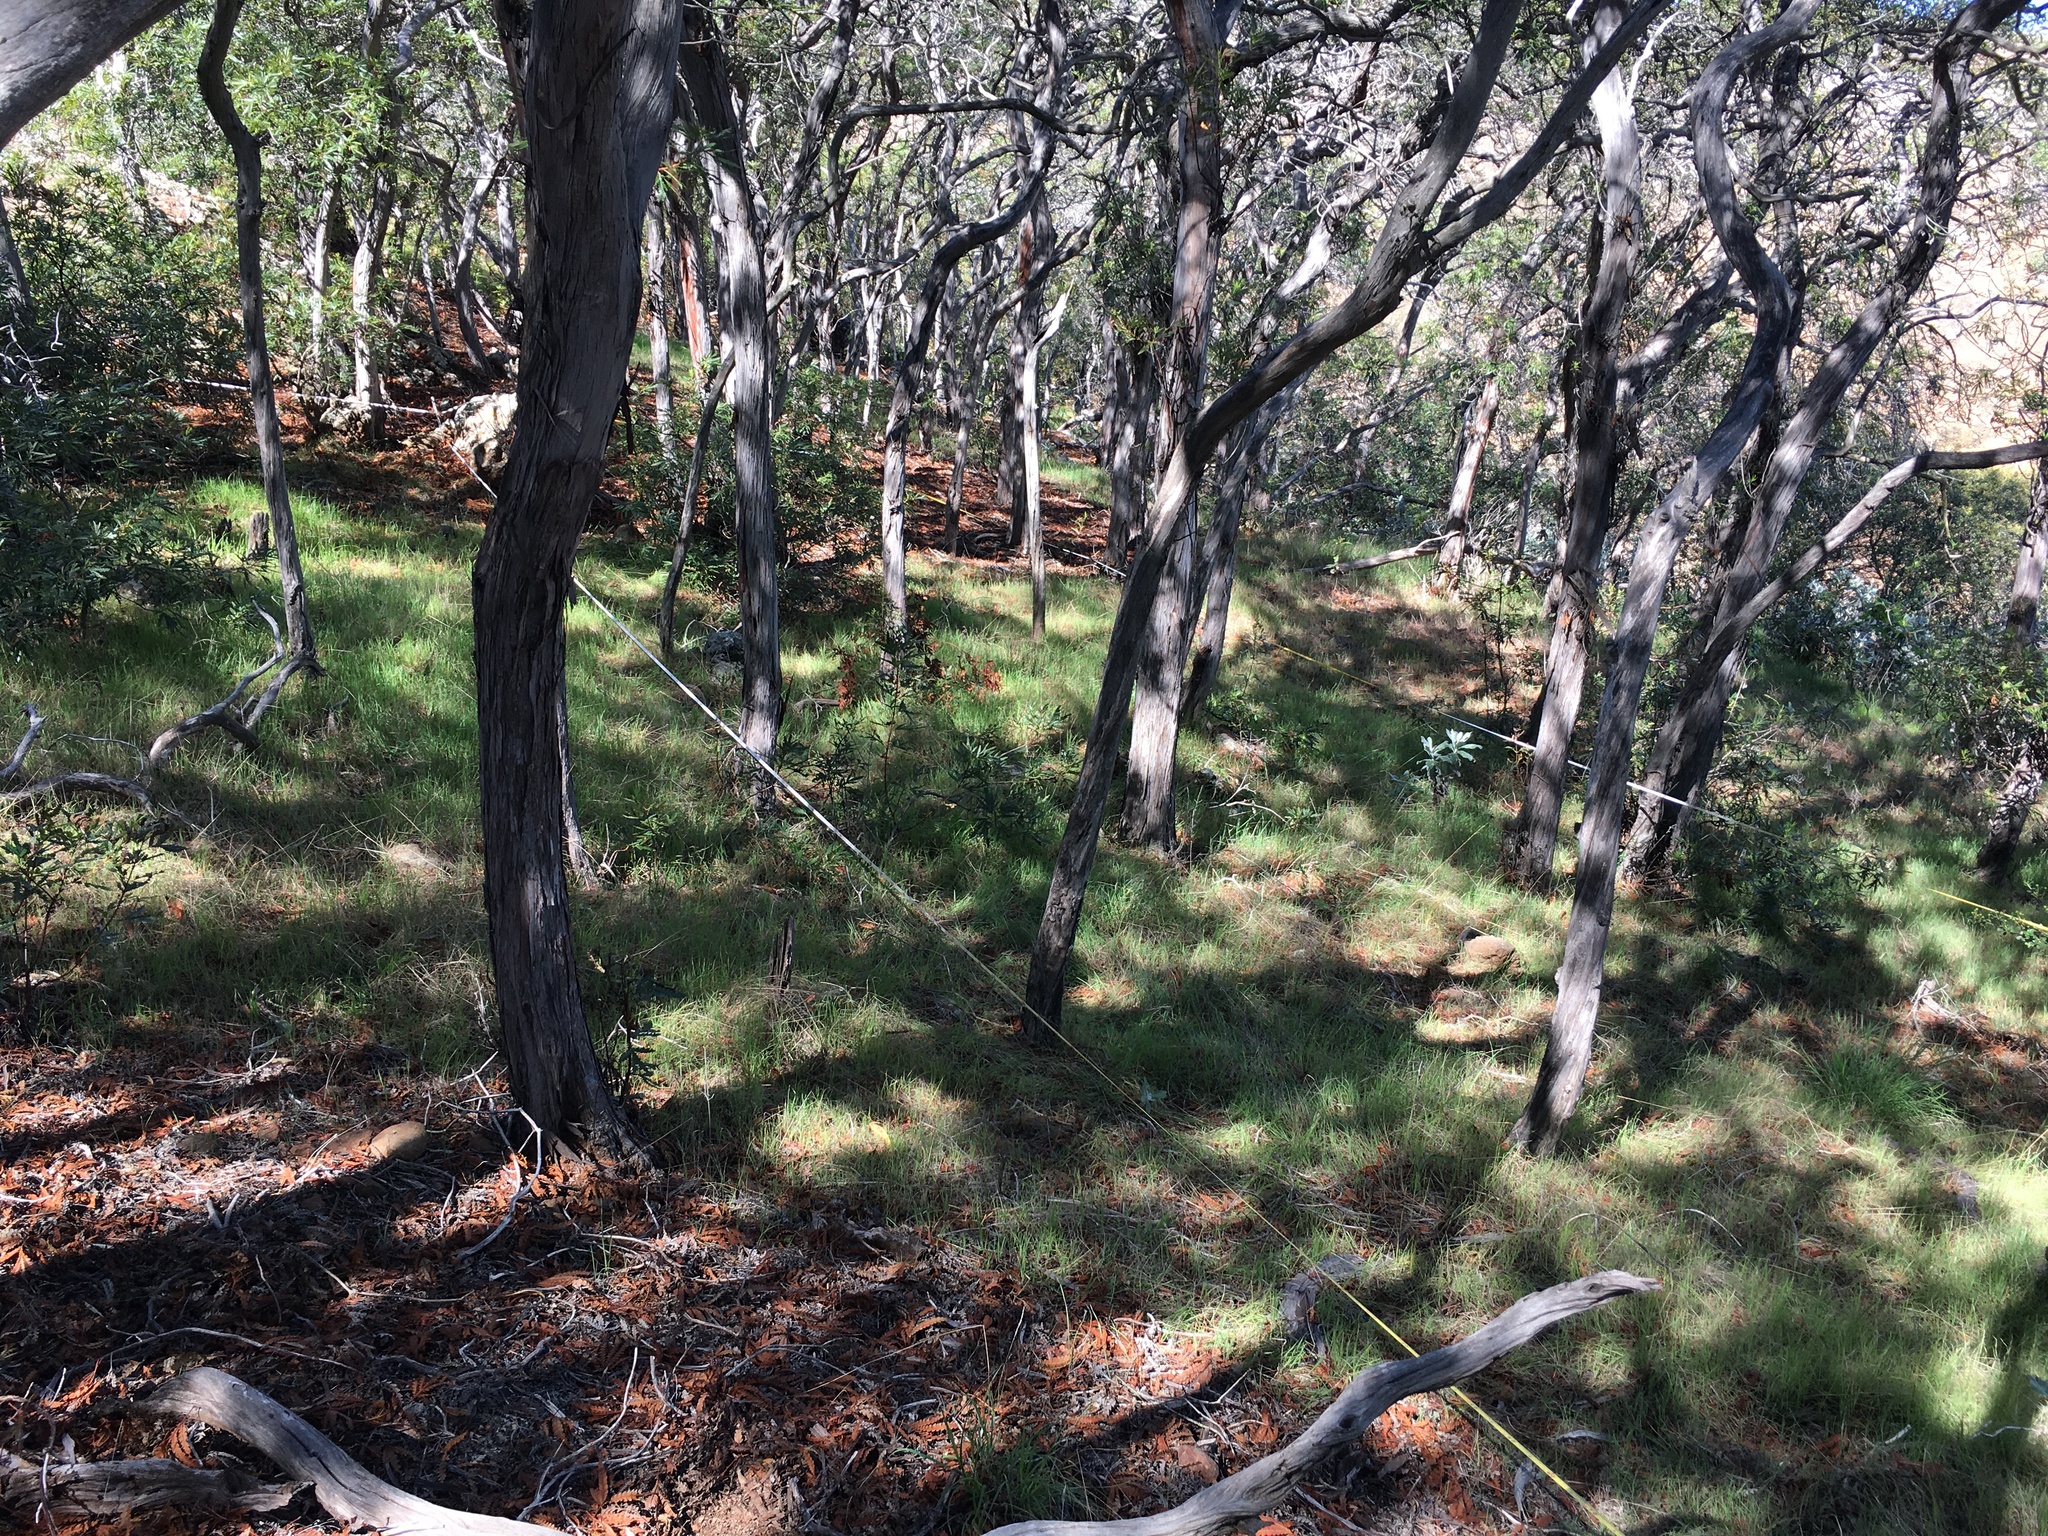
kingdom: Plantae
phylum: Tracheophyta
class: Magnoliopsida
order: Rosales
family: Rosaceae
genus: Lyonothamnus
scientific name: Lyonothamnus floribundus
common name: Catalina ironwood
